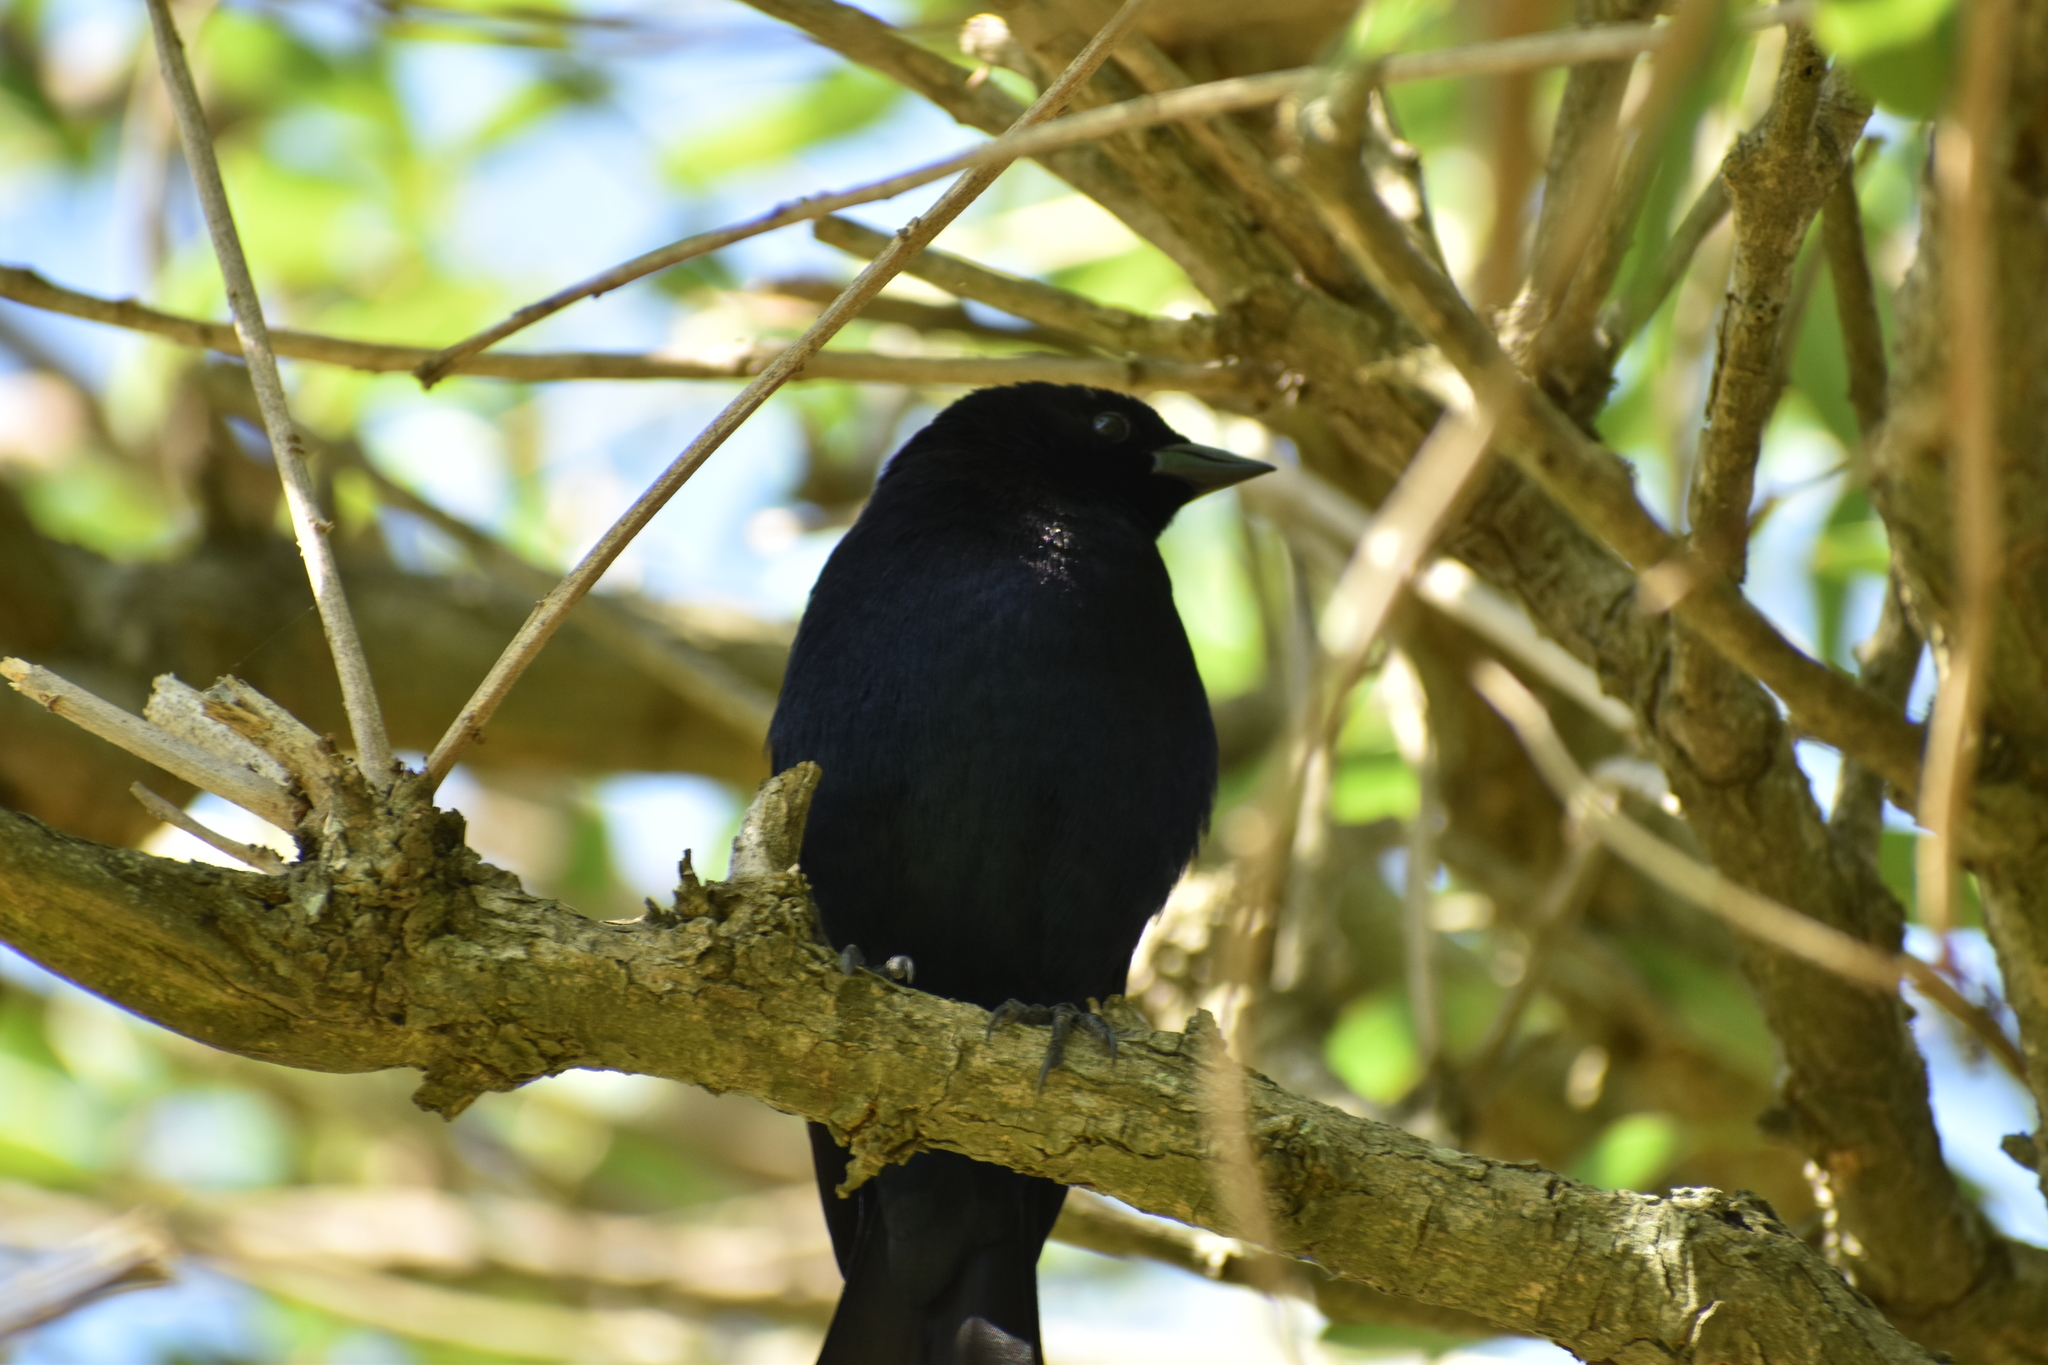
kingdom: Animalia
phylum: Chordata
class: Aves
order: Passeriformes
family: Icteridae
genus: Molothrus
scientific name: Molothrus bonariensis
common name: Shiny cowbird
